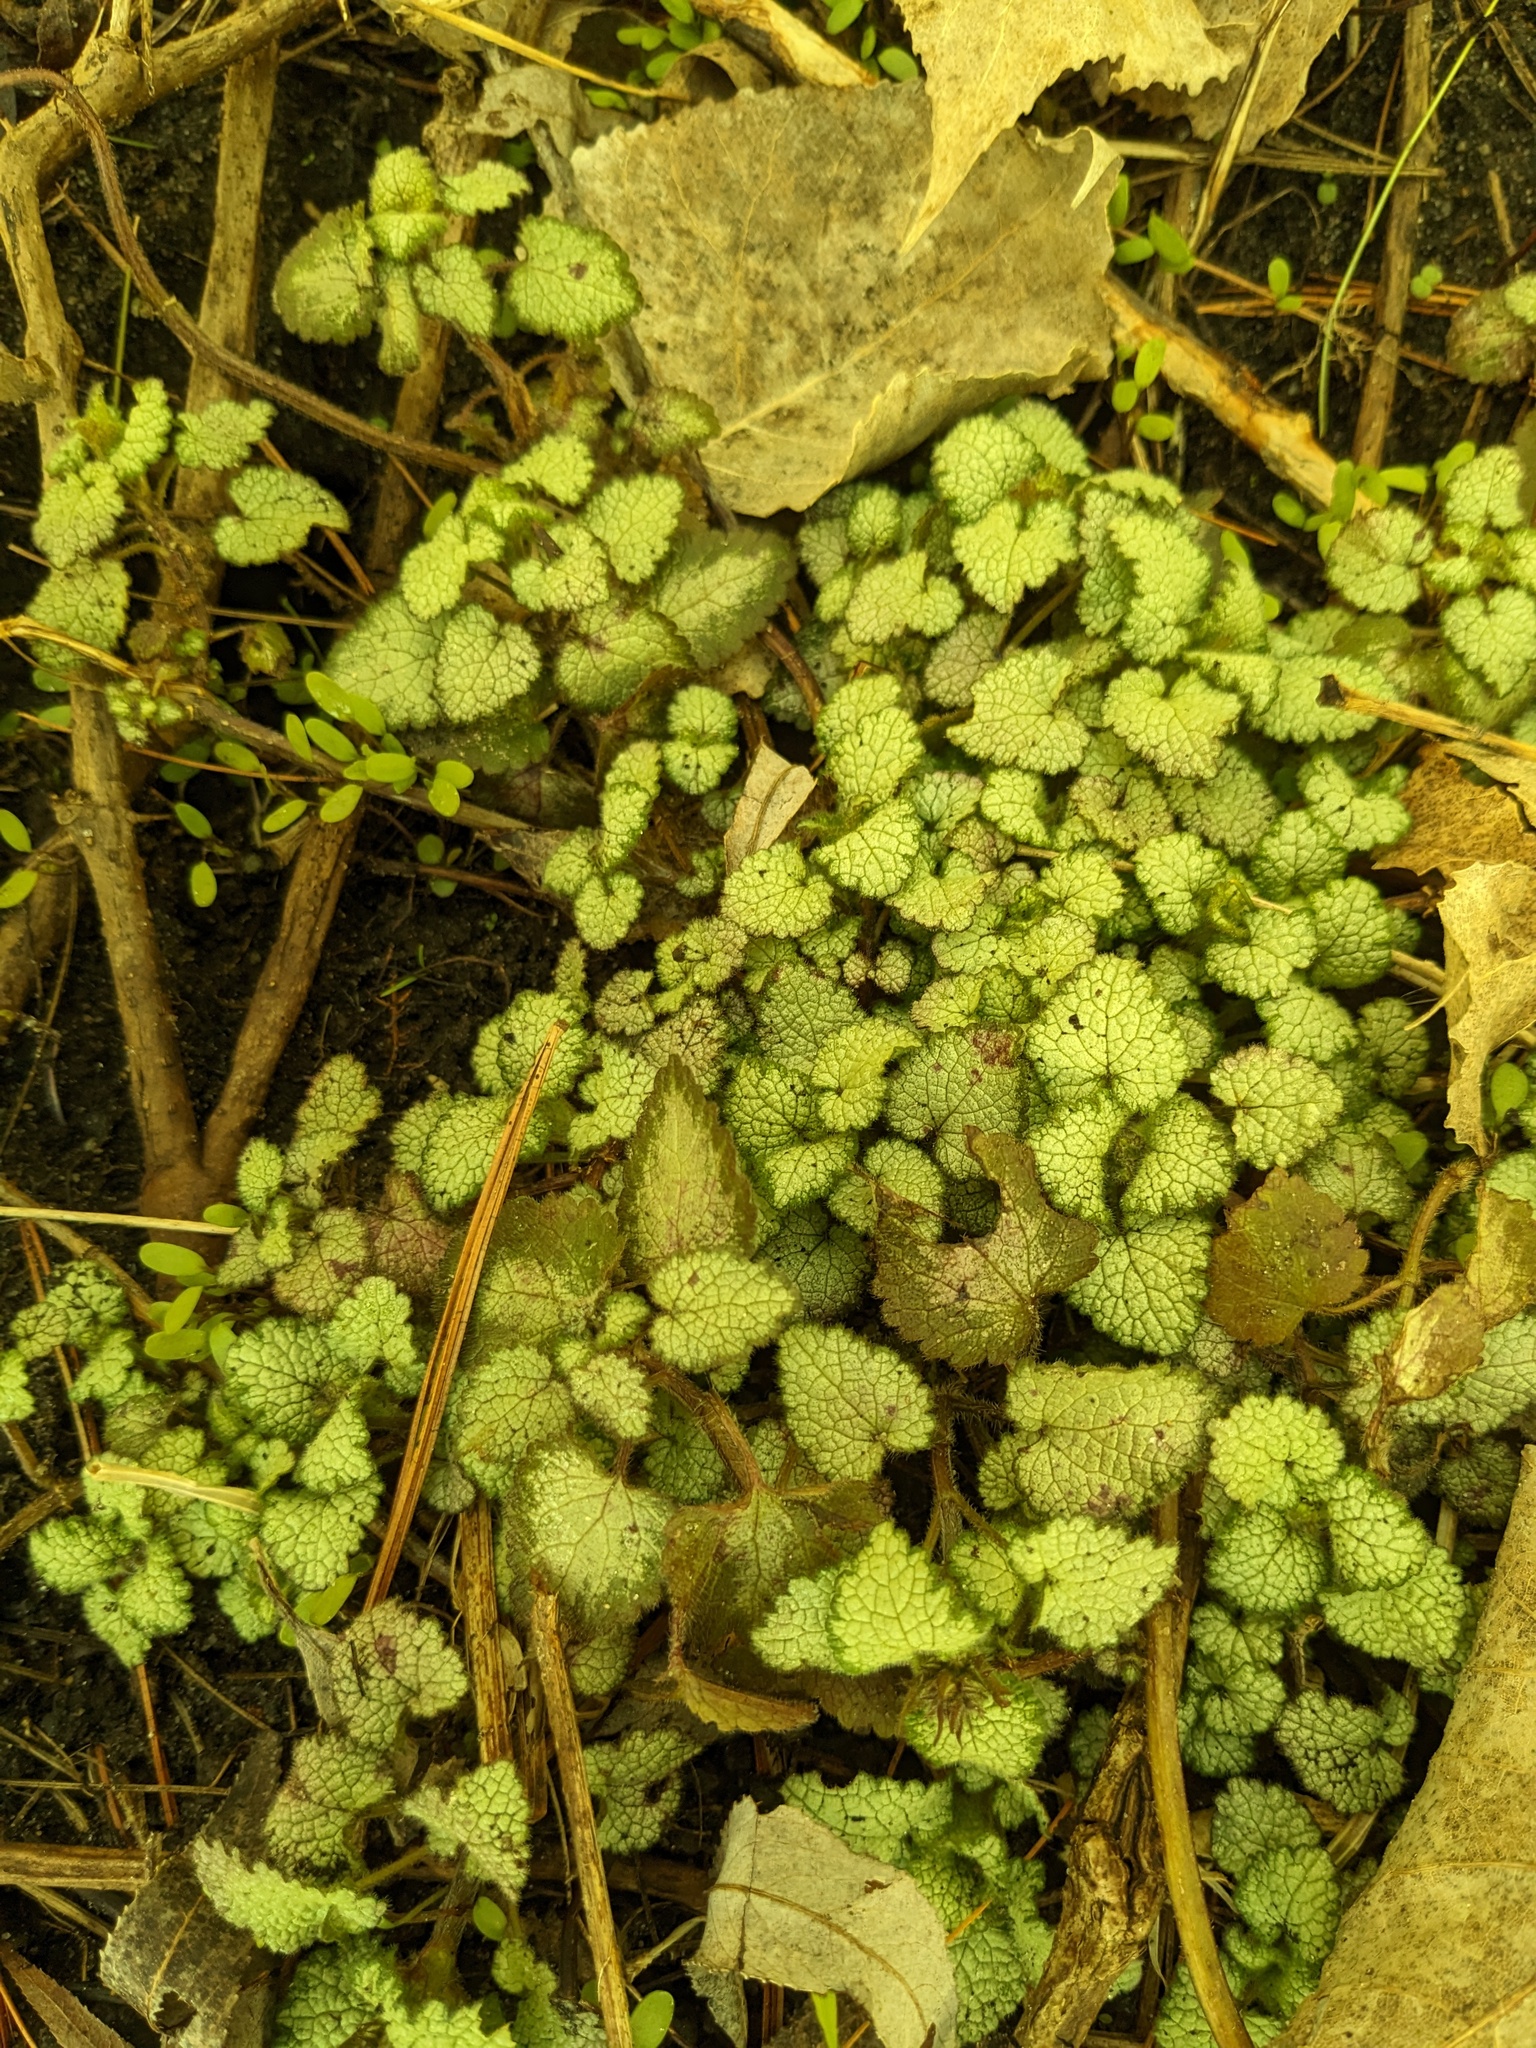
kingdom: Plantae
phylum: Tracheophyta
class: Magnoliopsida
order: Lamiales
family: Lamiaceae
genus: Lamium
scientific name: Lamium maculatum
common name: Spotted dead-nettle
